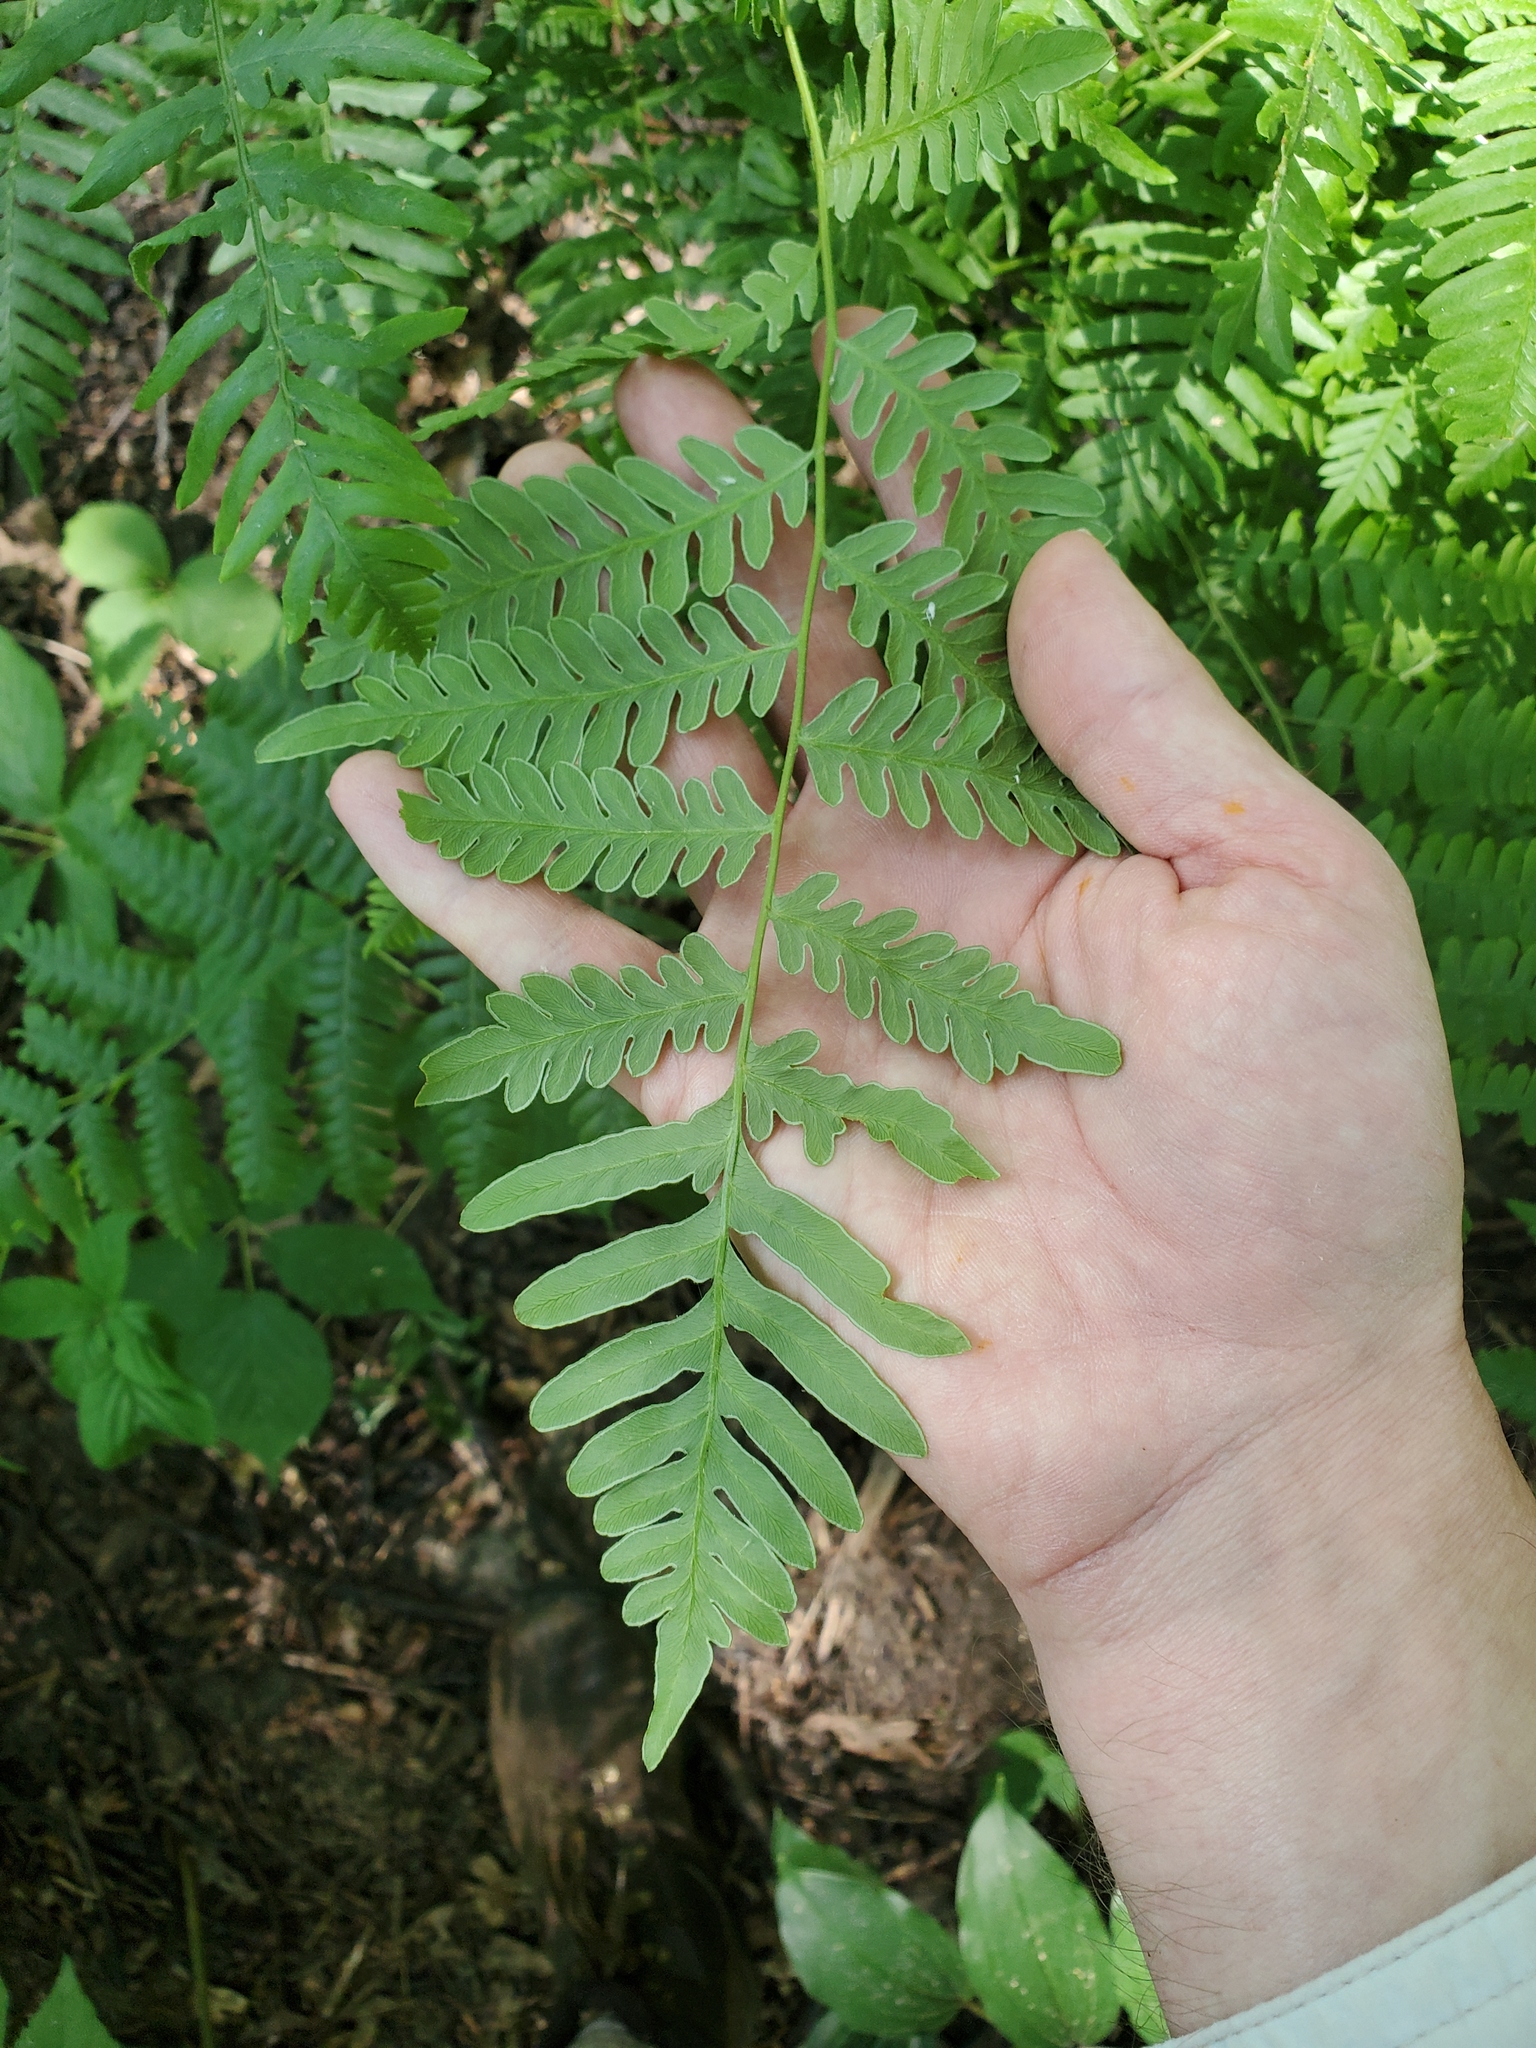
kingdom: Plantae
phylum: Tracheophyta
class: Polypodiopsida
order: Polypodiales
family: Dennstaedtiaceae
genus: Pteridium
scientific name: Pteridium aquilinum
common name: Bracken
